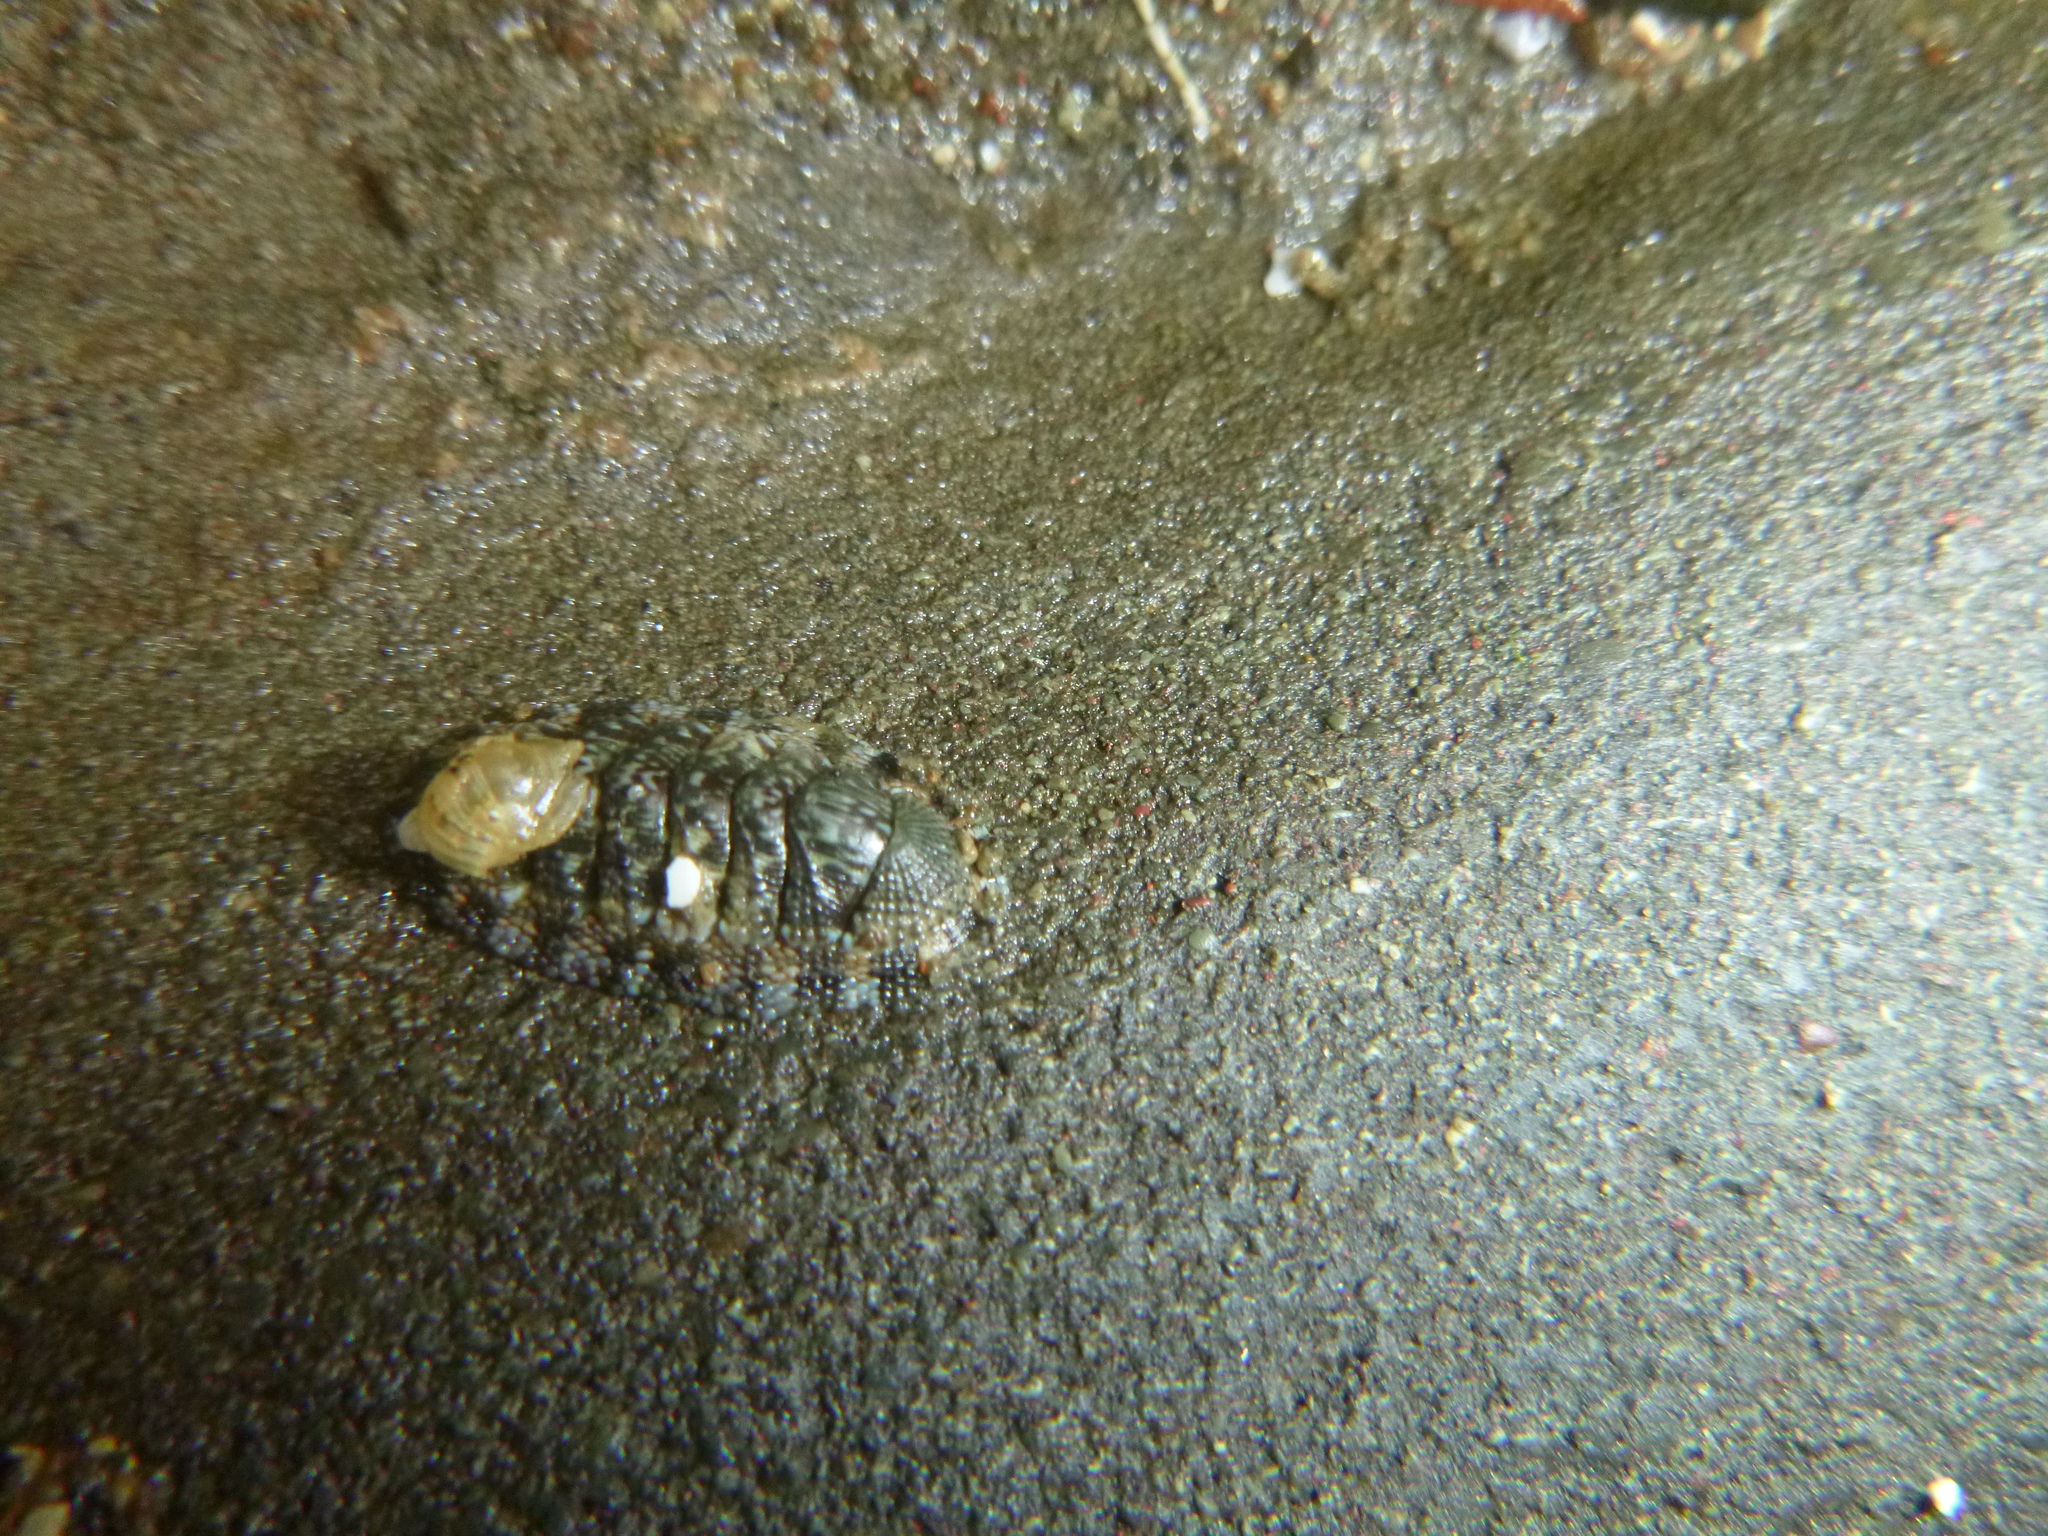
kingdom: Animalia
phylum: Mollusca
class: Polyplacophora
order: Chitonida
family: Chitonidae
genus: Sypharochiton
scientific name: Sypharochiton sinclairi
